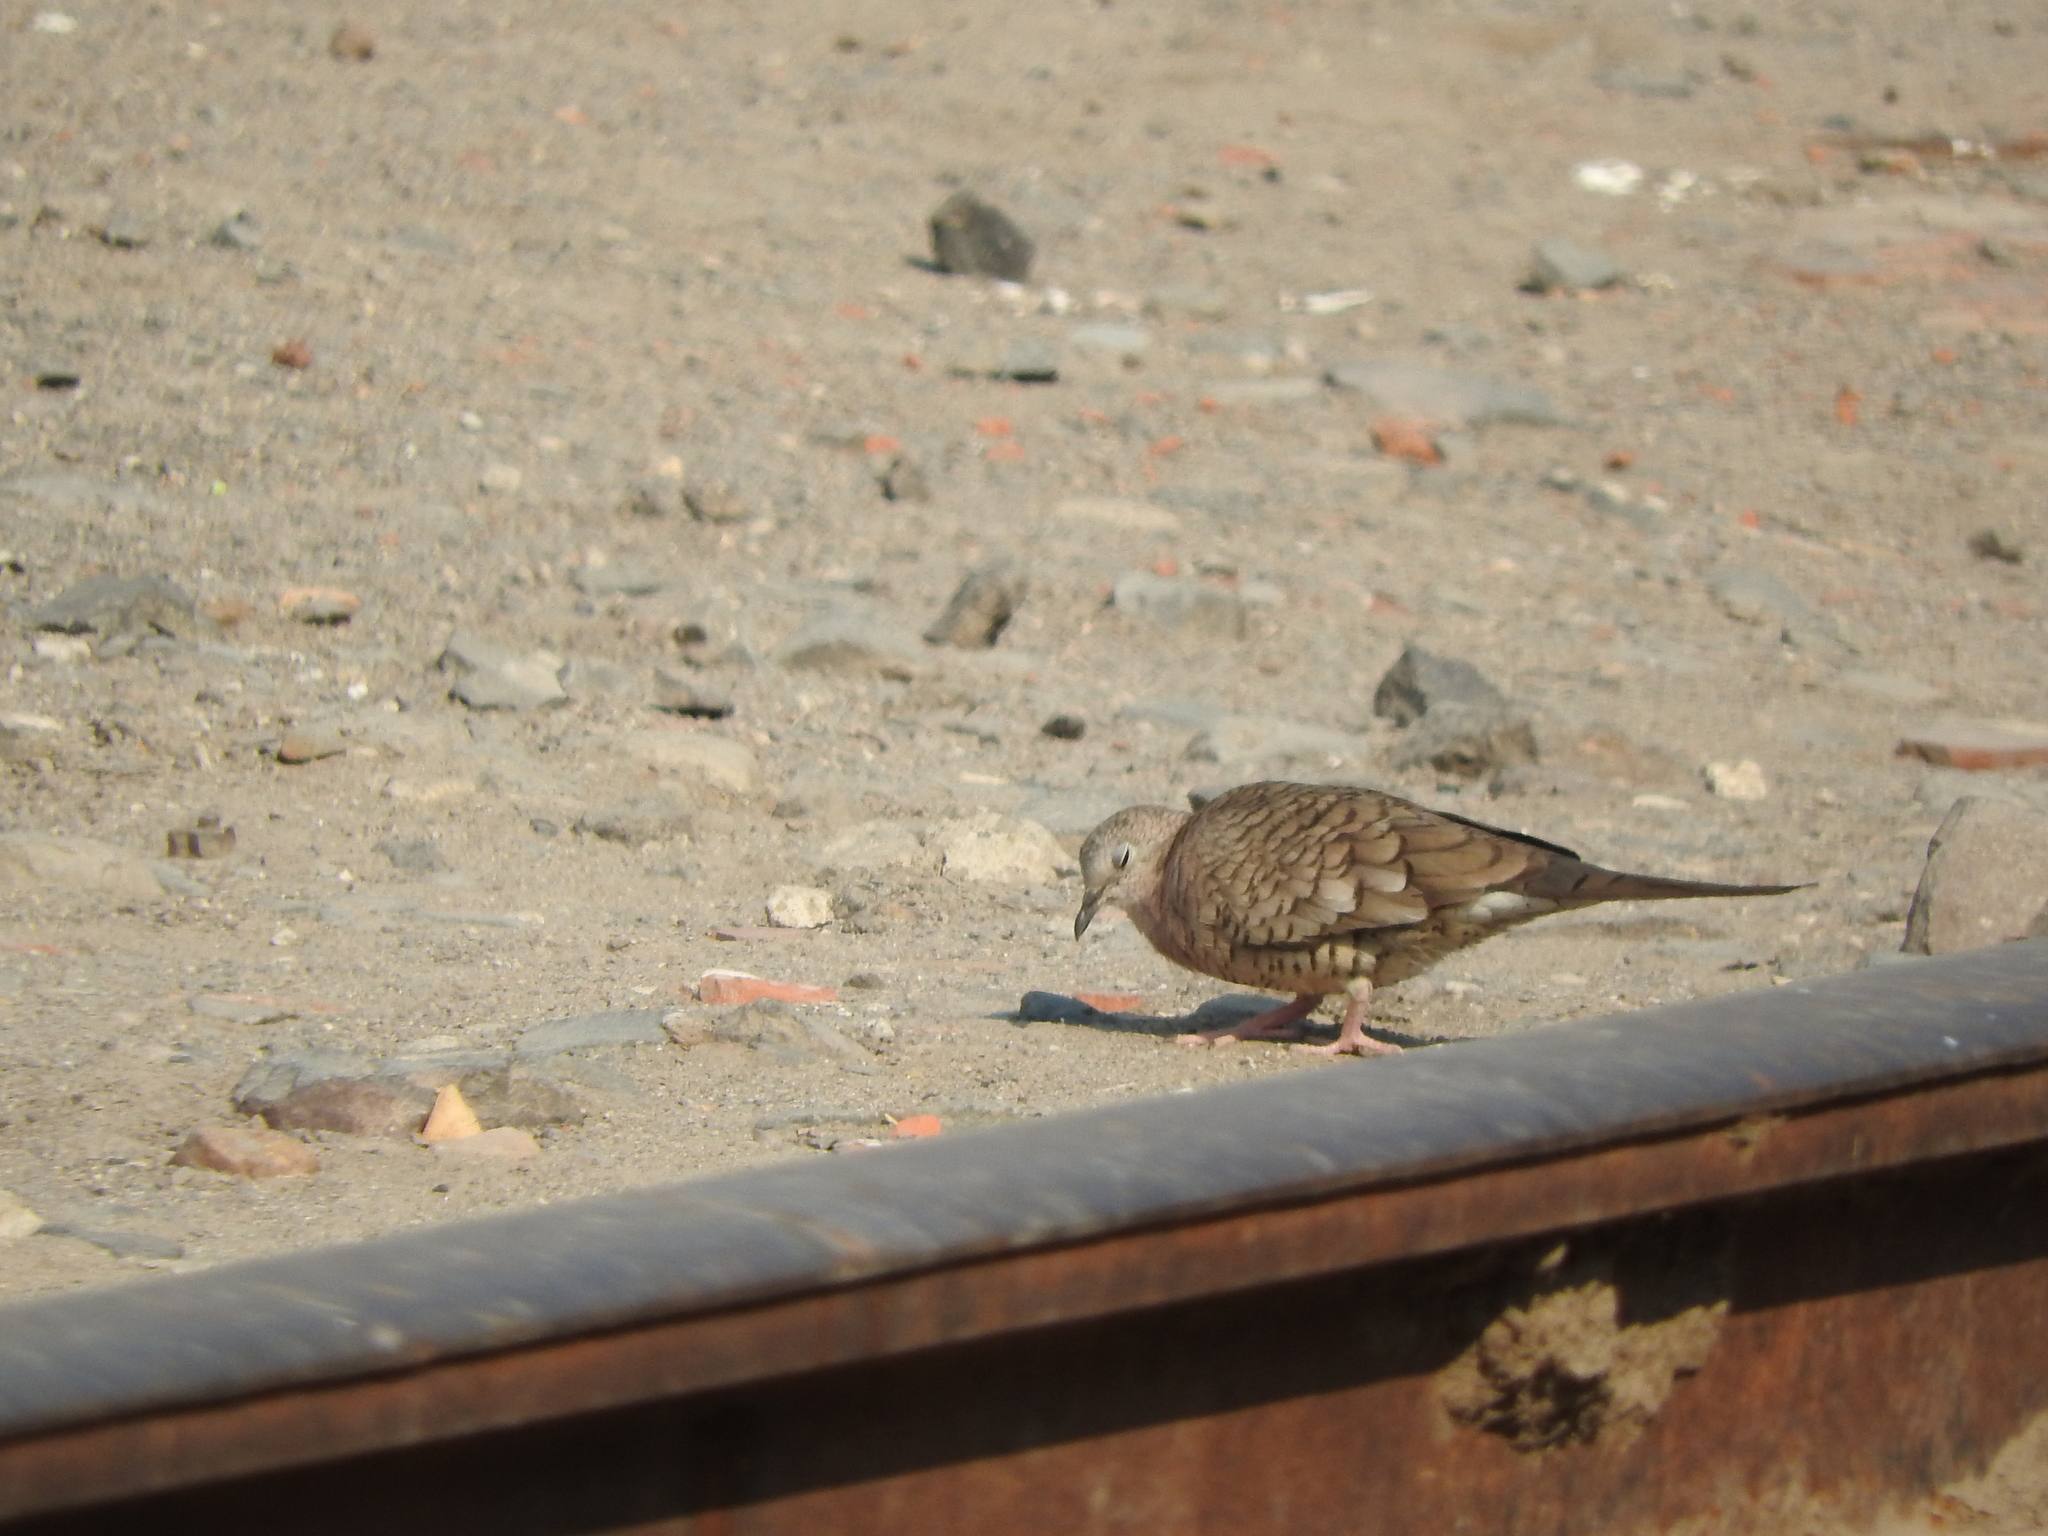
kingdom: Animalia
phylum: Chordata
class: Aves
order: Columbiformes
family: Columbidae
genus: Columbina
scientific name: Columbina inca
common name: Inca dove
